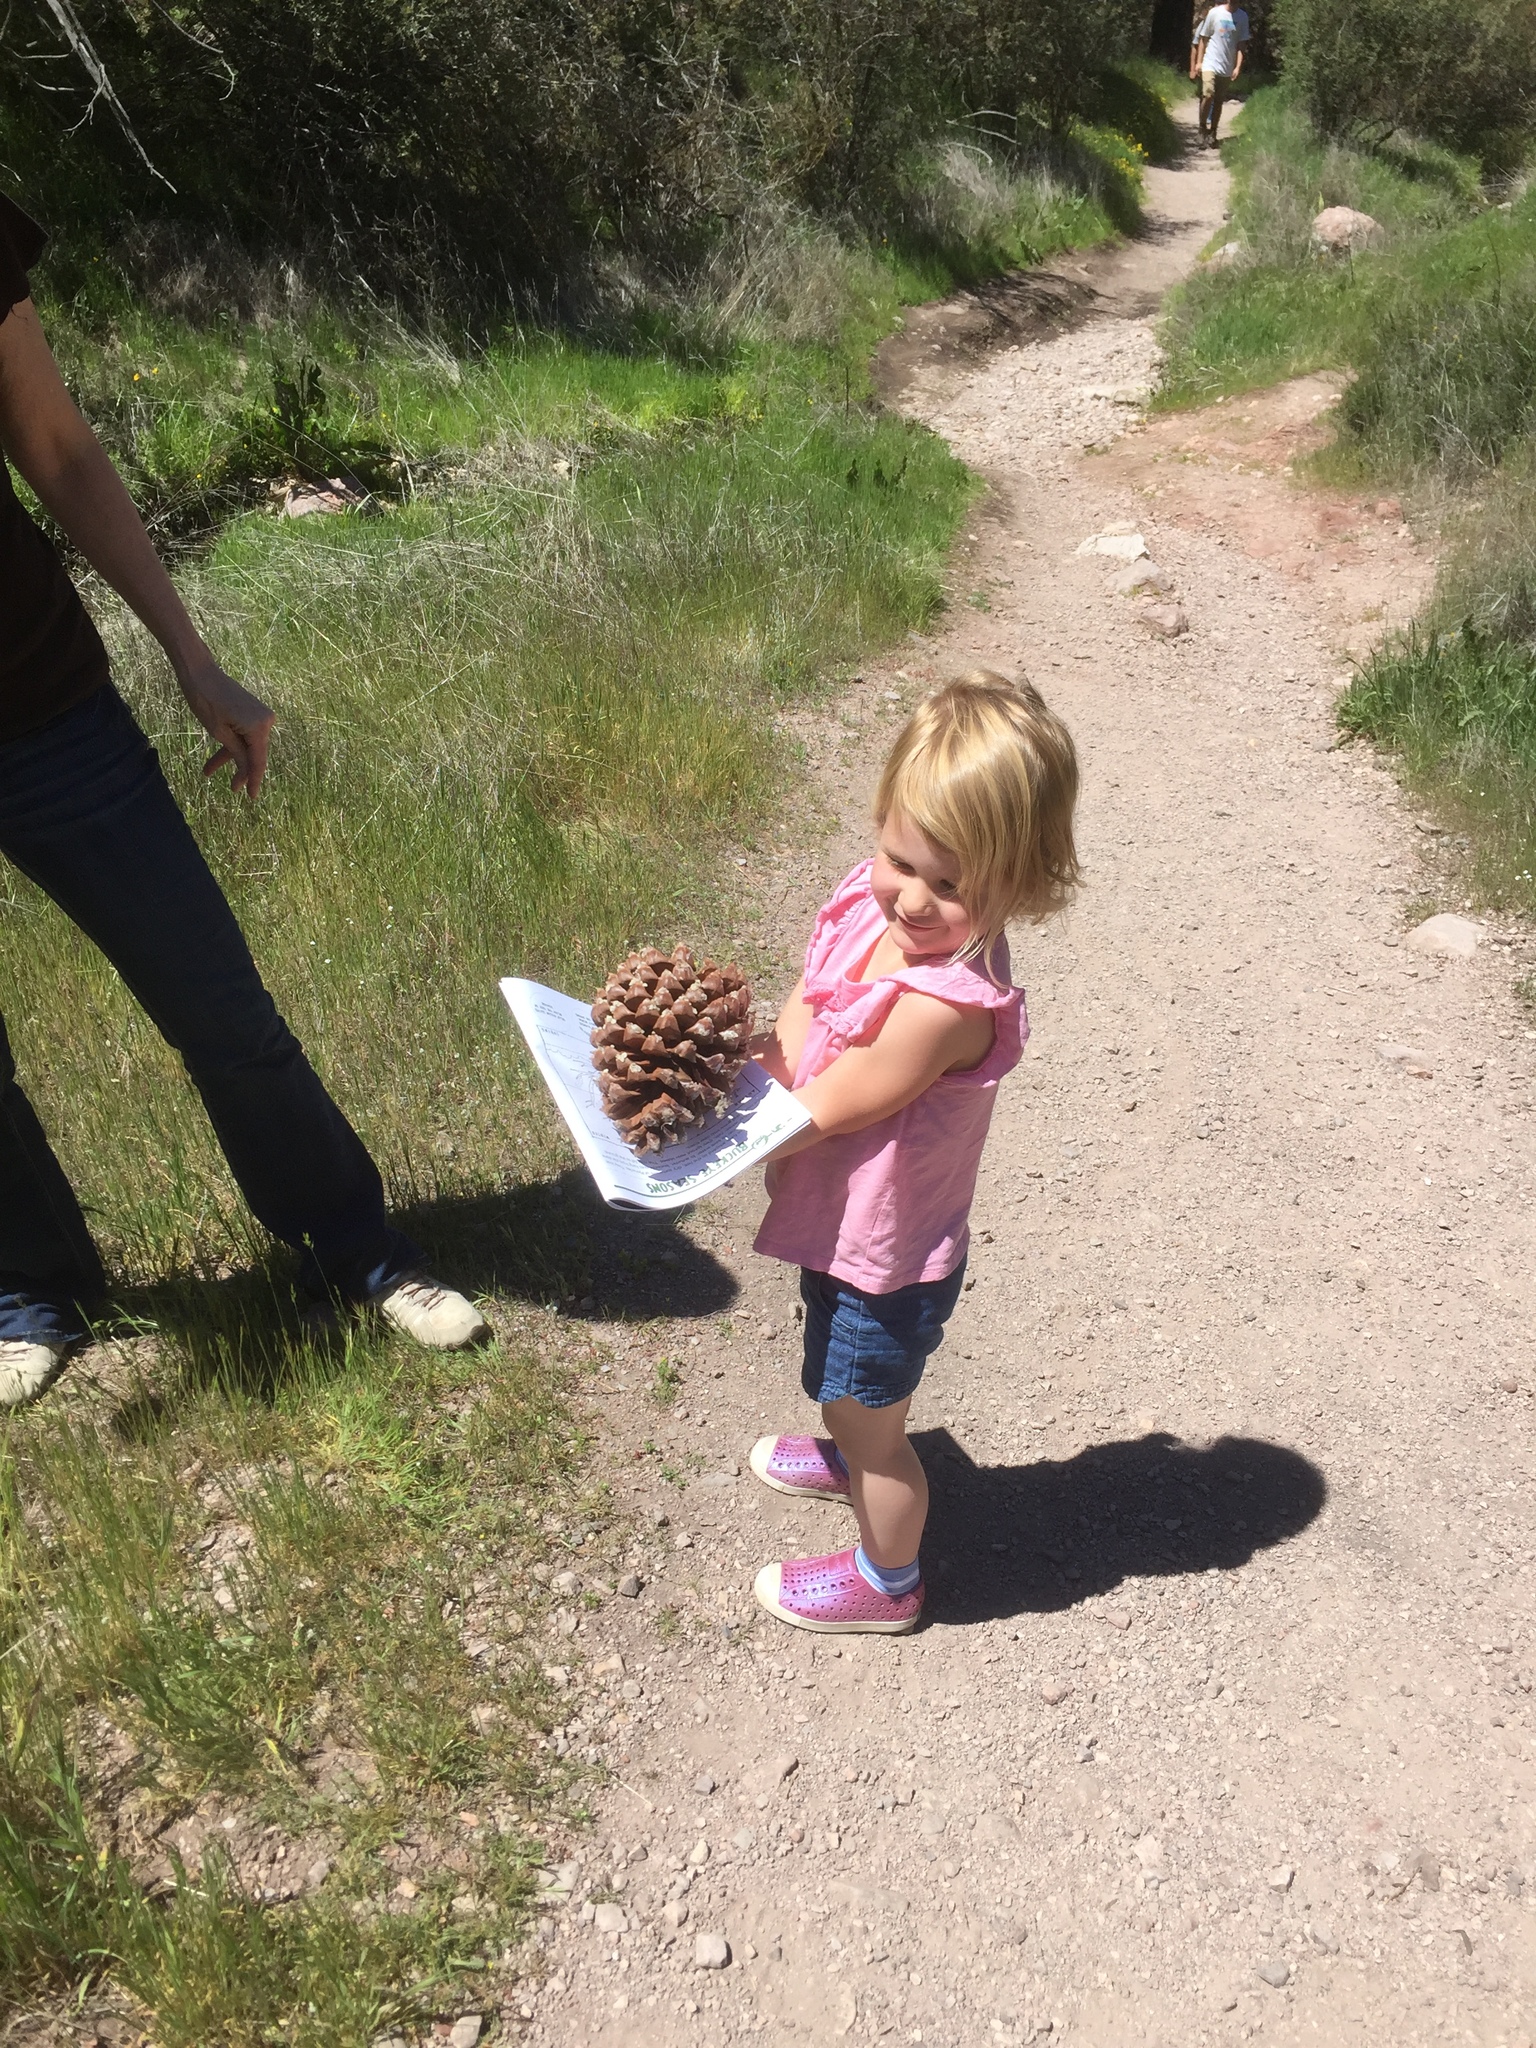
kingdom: Plantae
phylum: Tracheophyta
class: Pinopsida
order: Pinales
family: Pinaceae
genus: Pinus
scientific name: Pinus sabiniana
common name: Bull pine
